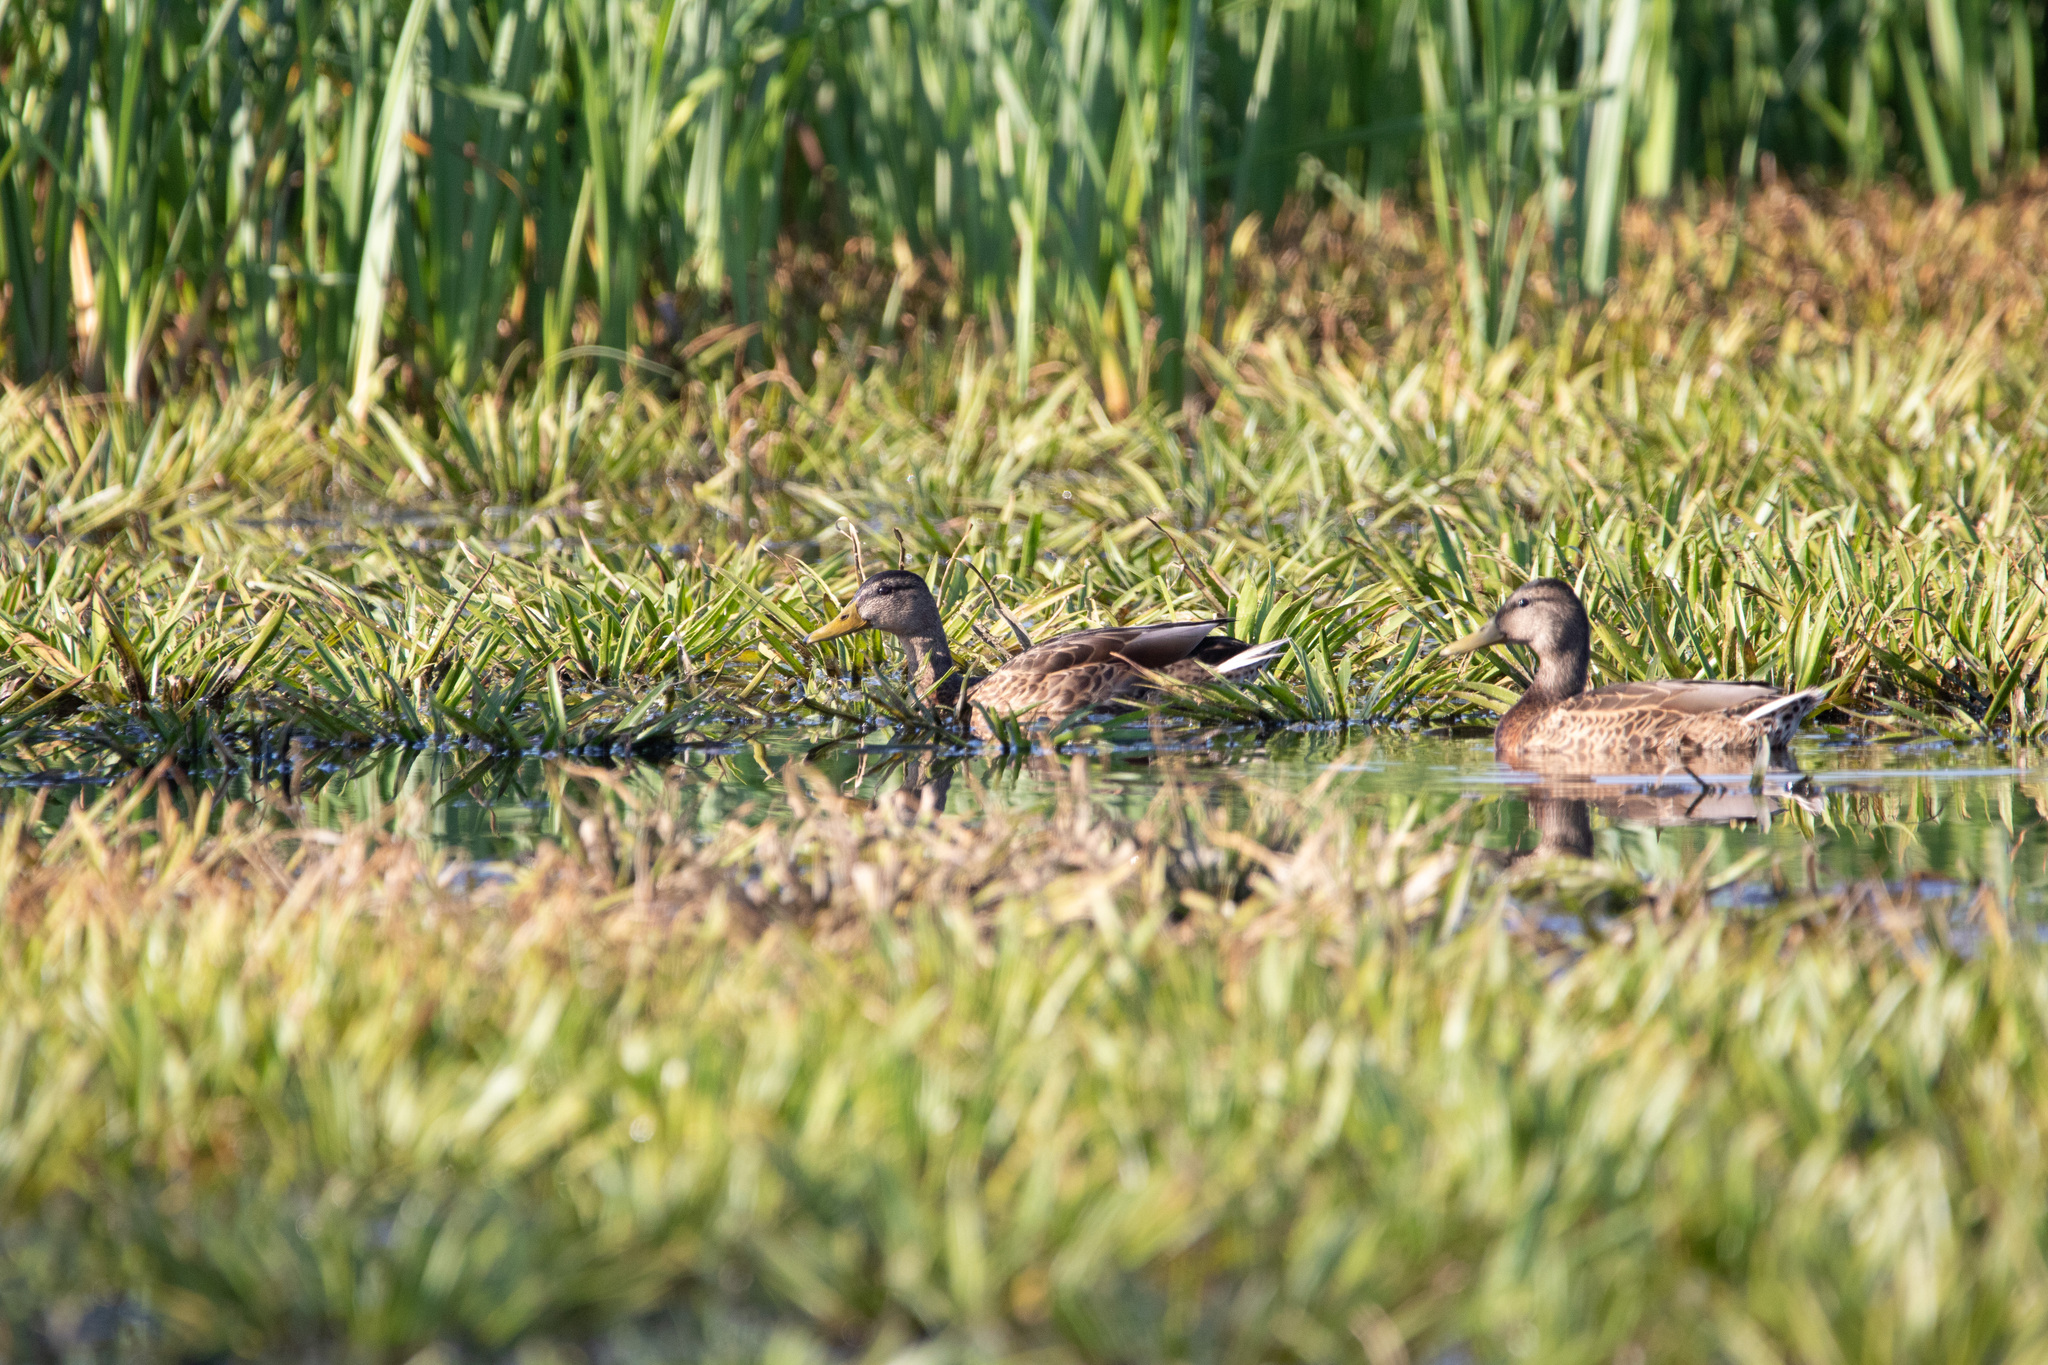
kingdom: Animalia
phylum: Chordata
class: Aves
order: Anseriformes
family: Anatidae
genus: Anas
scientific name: Anas platyrhynchos
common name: Mallard
